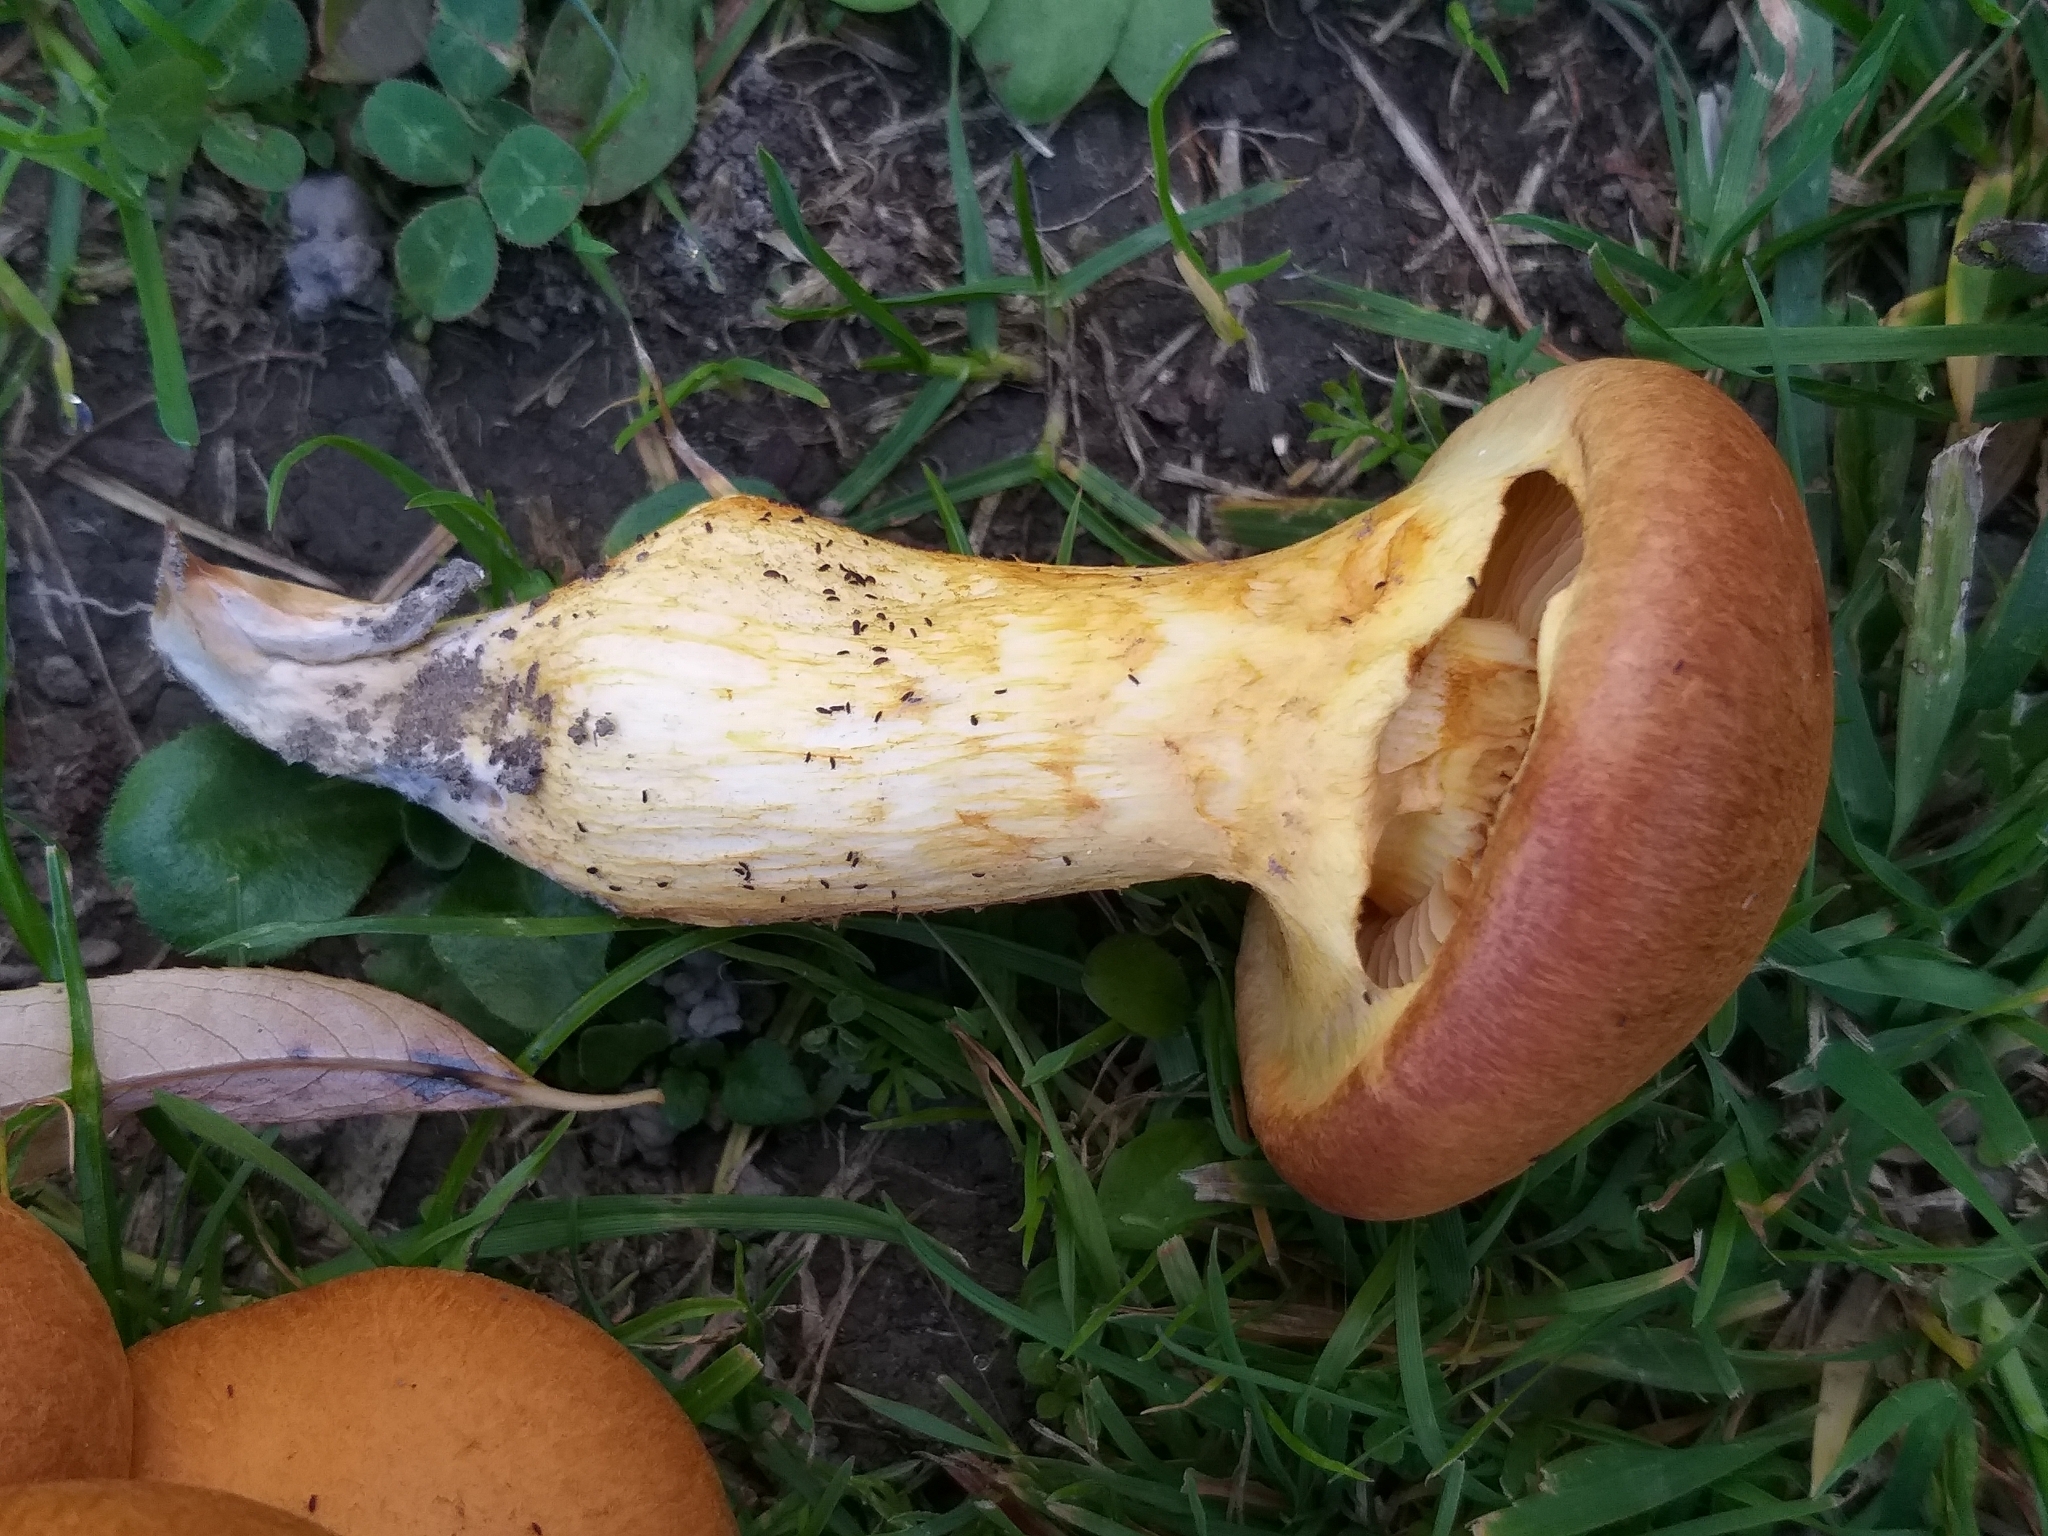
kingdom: Fungi
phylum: Basidiomycota
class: Agaricomycetes
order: Agaricales
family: Hymenogastraceae
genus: Gymnopilus
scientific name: Gymnopilus junonius
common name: Spectacular rustgill
